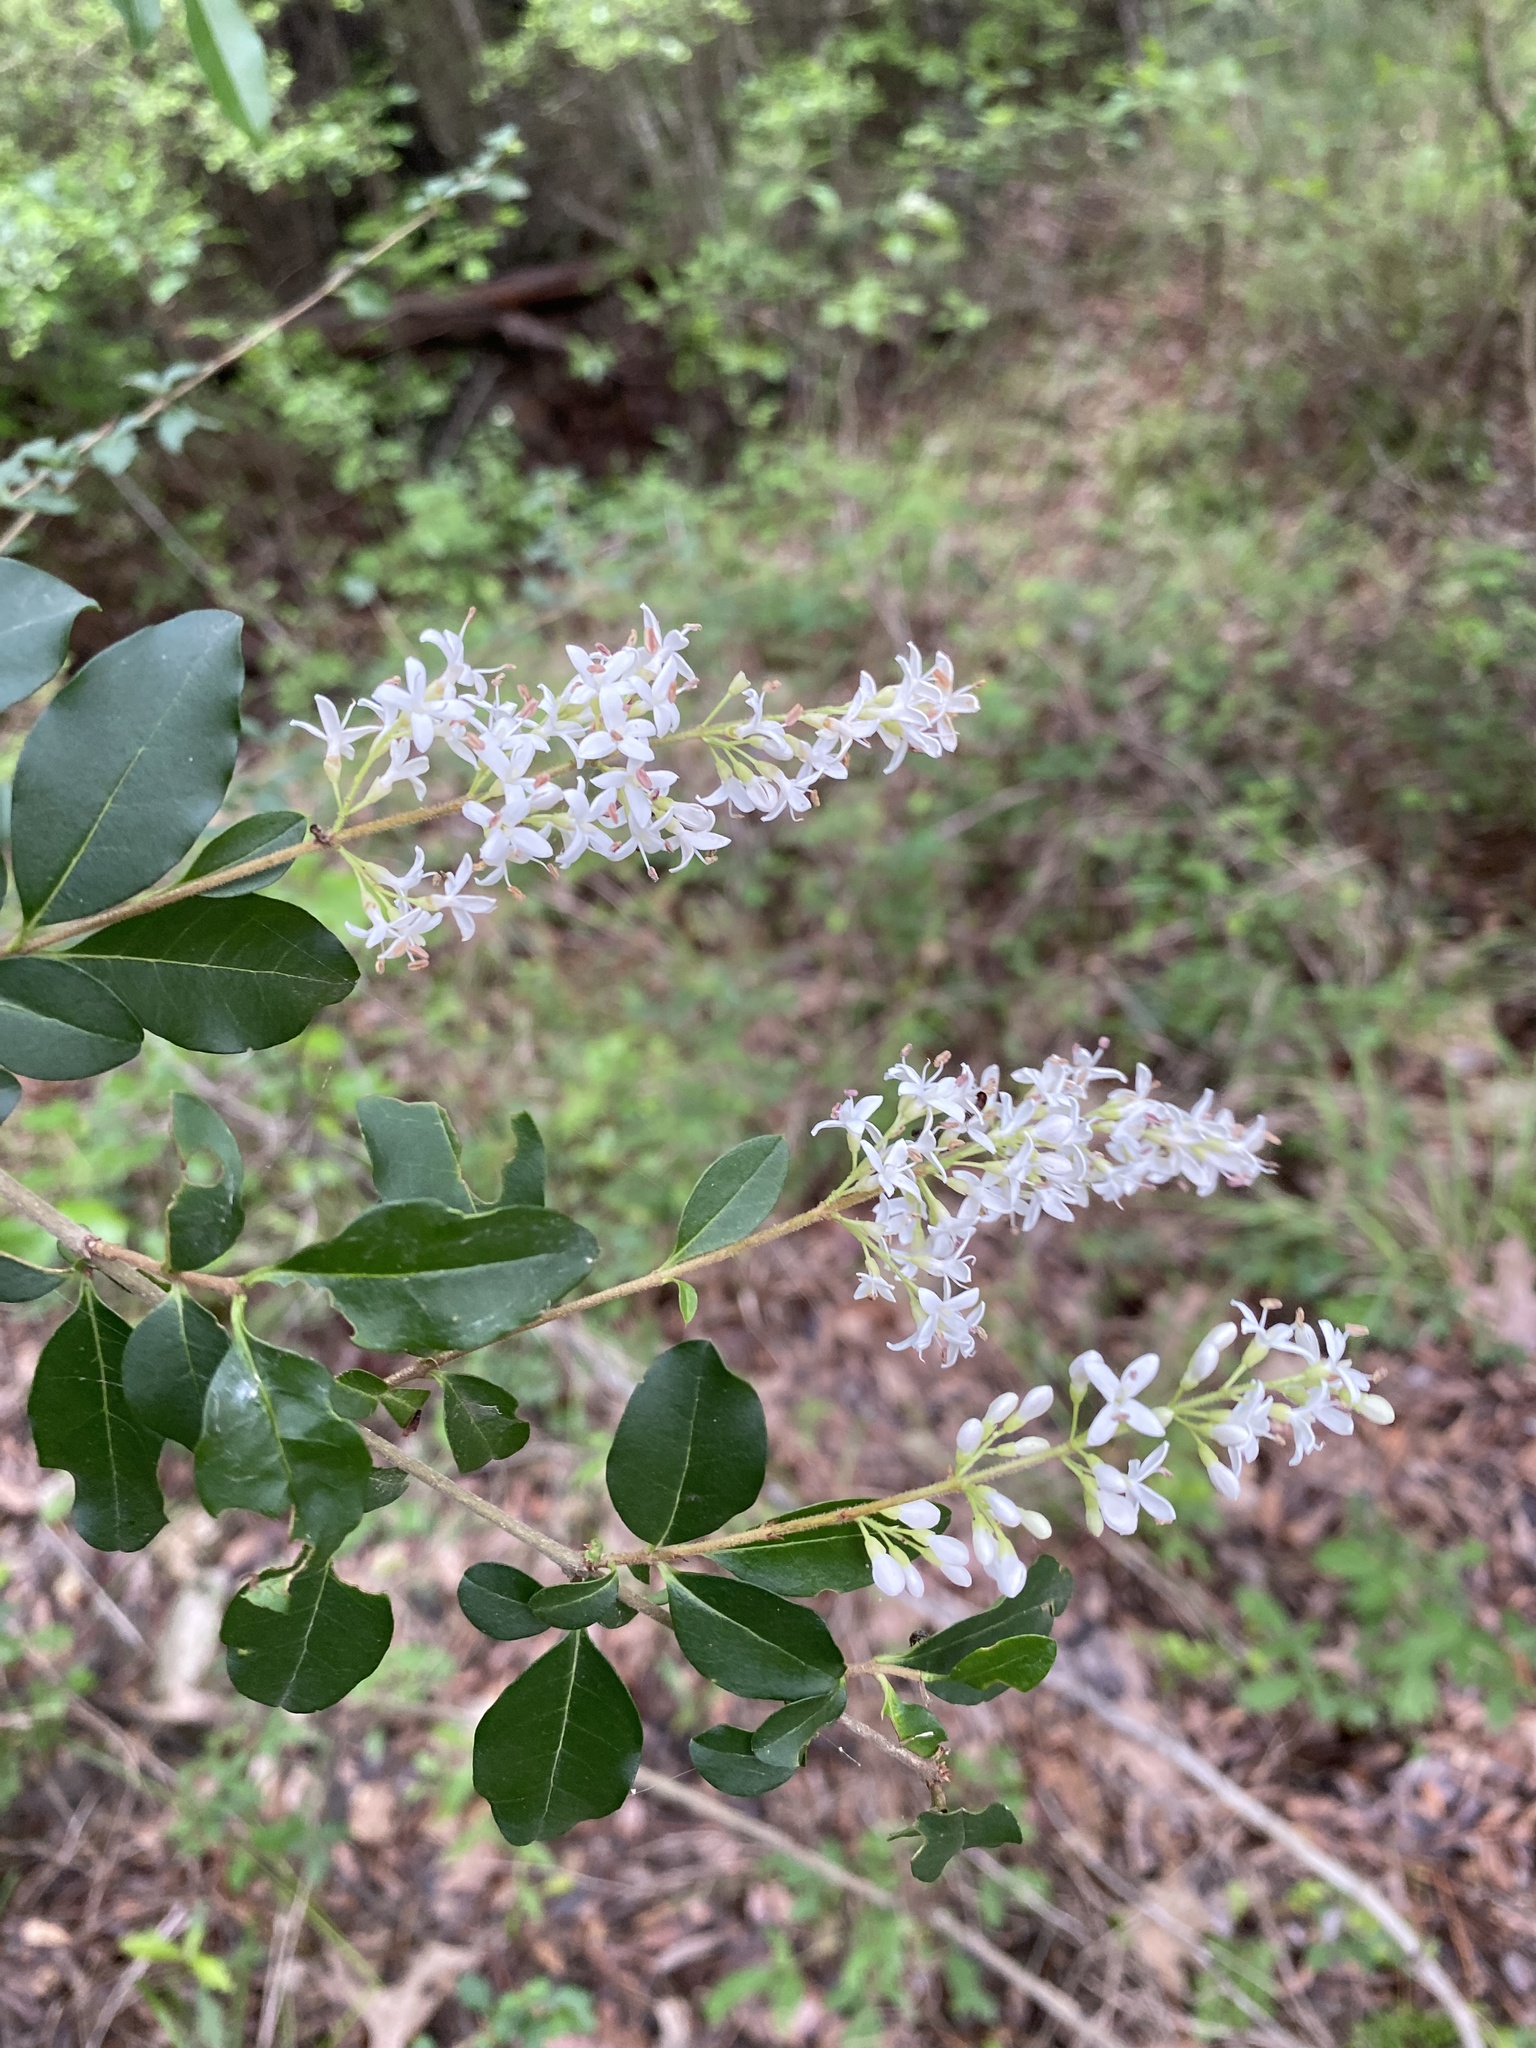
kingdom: Plantae
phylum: Tracheophyta
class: Magnoliopsida
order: Lamiales
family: Oleaceae
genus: Ligustrum
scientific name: Ligustrum sinense
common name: Chinese privet
